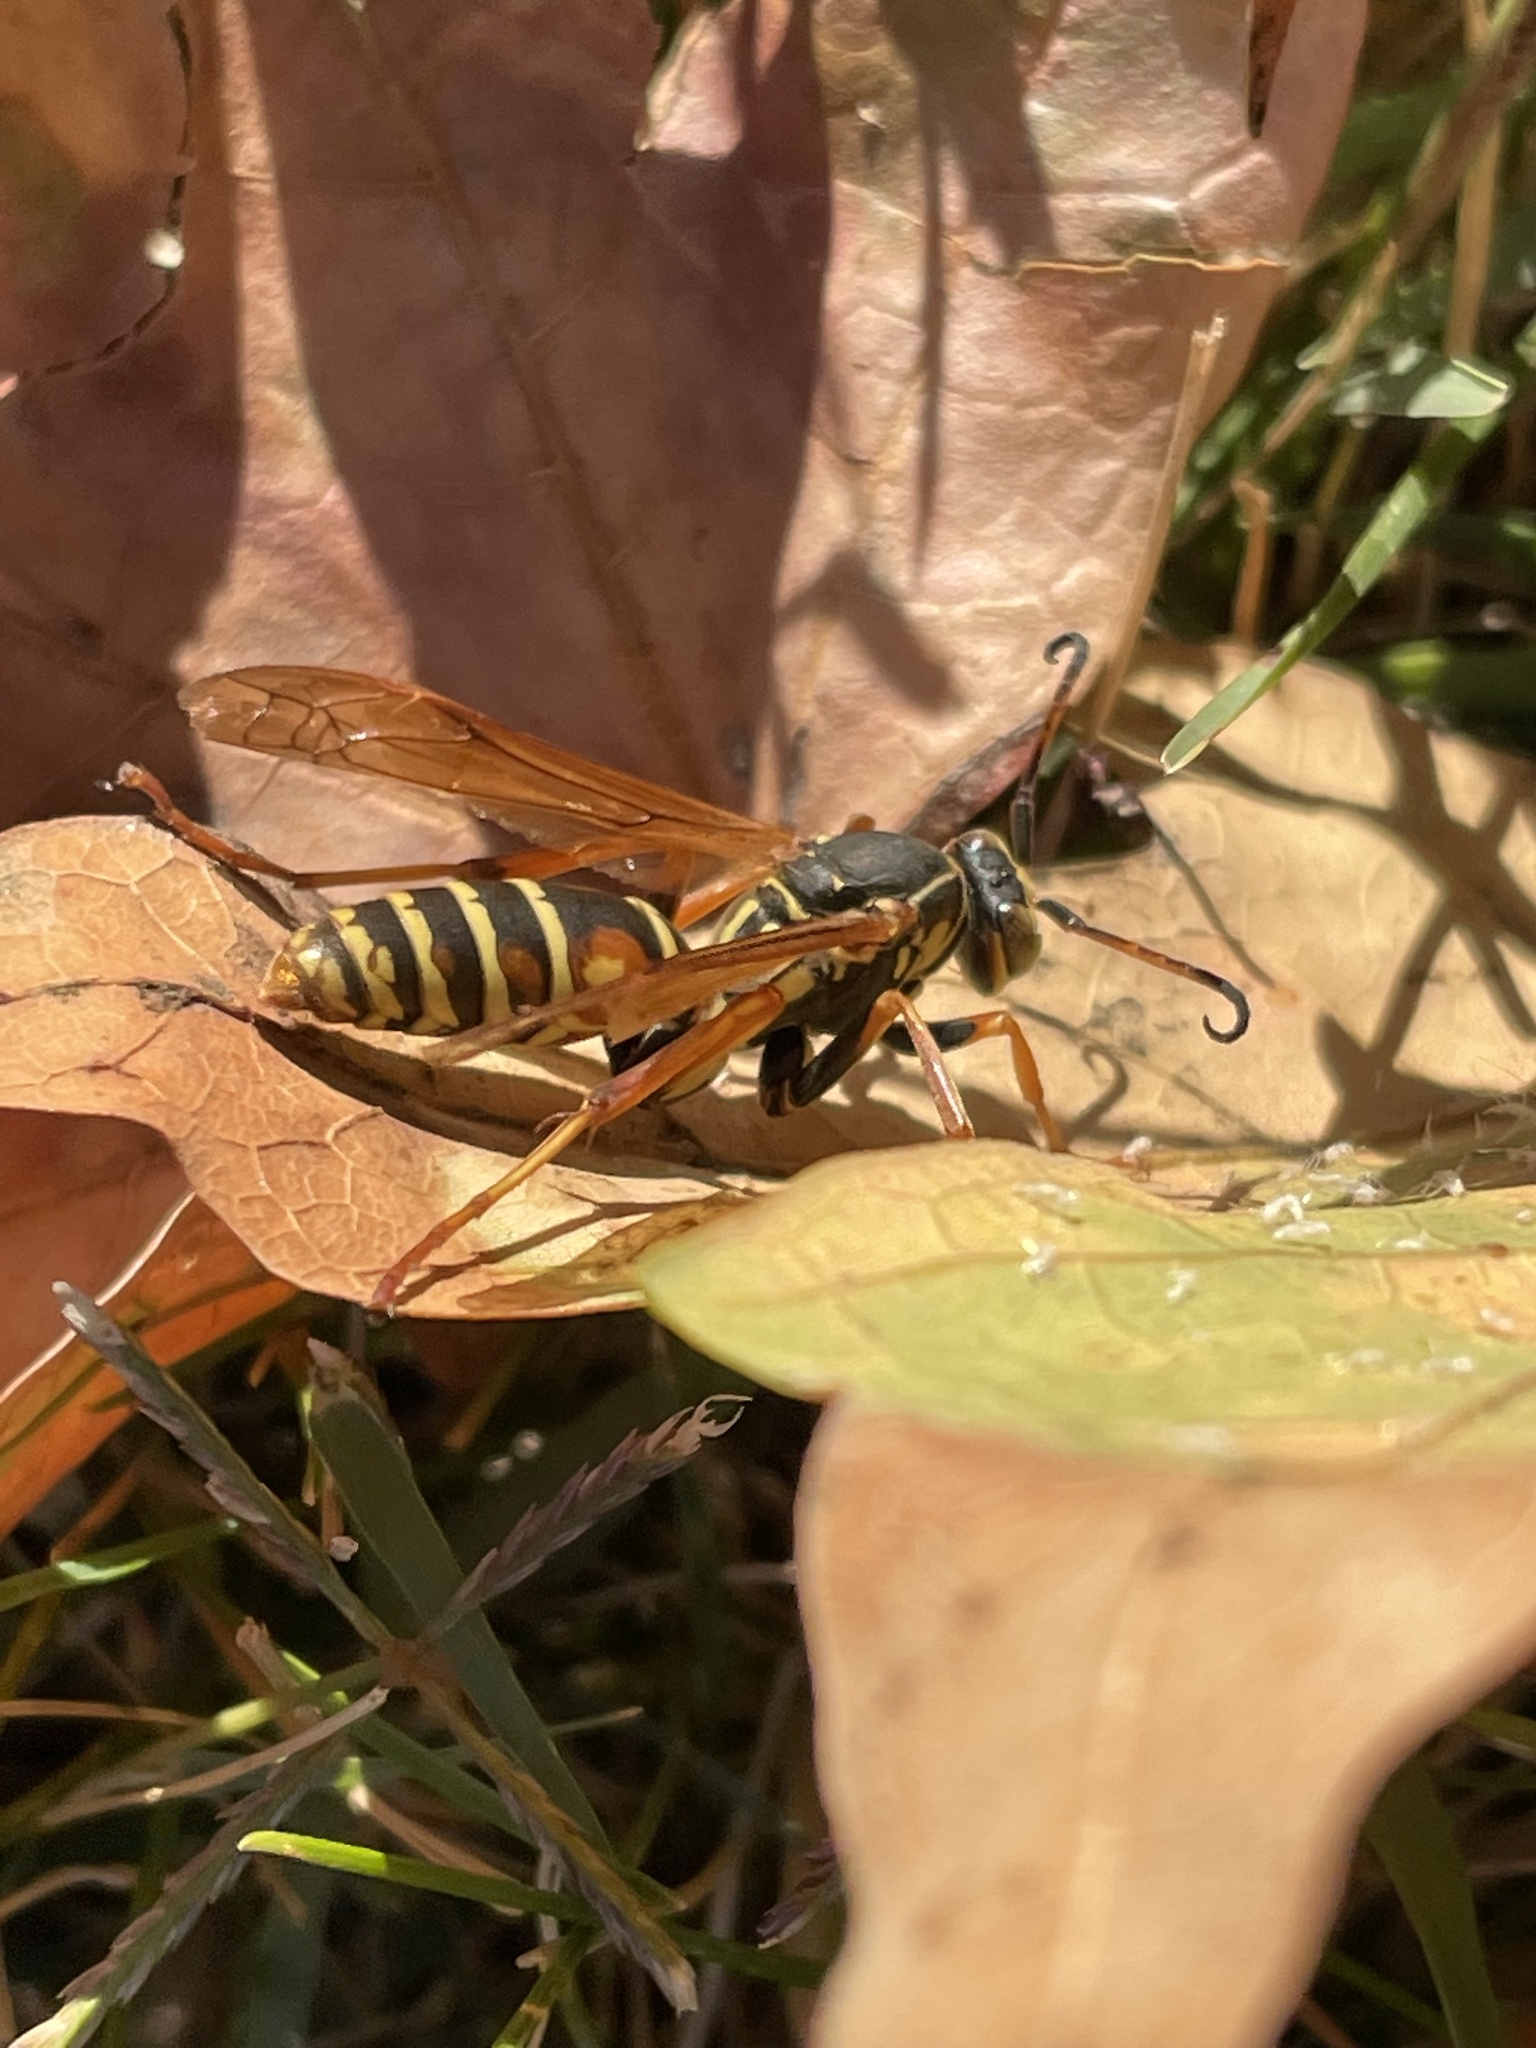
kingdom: Animalia
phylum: Arthropoda
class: Insecta
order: Hymenoptera
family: Eumenidae
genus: Polistes
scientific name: Polistes fuscatus
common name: Dark paper wasp
